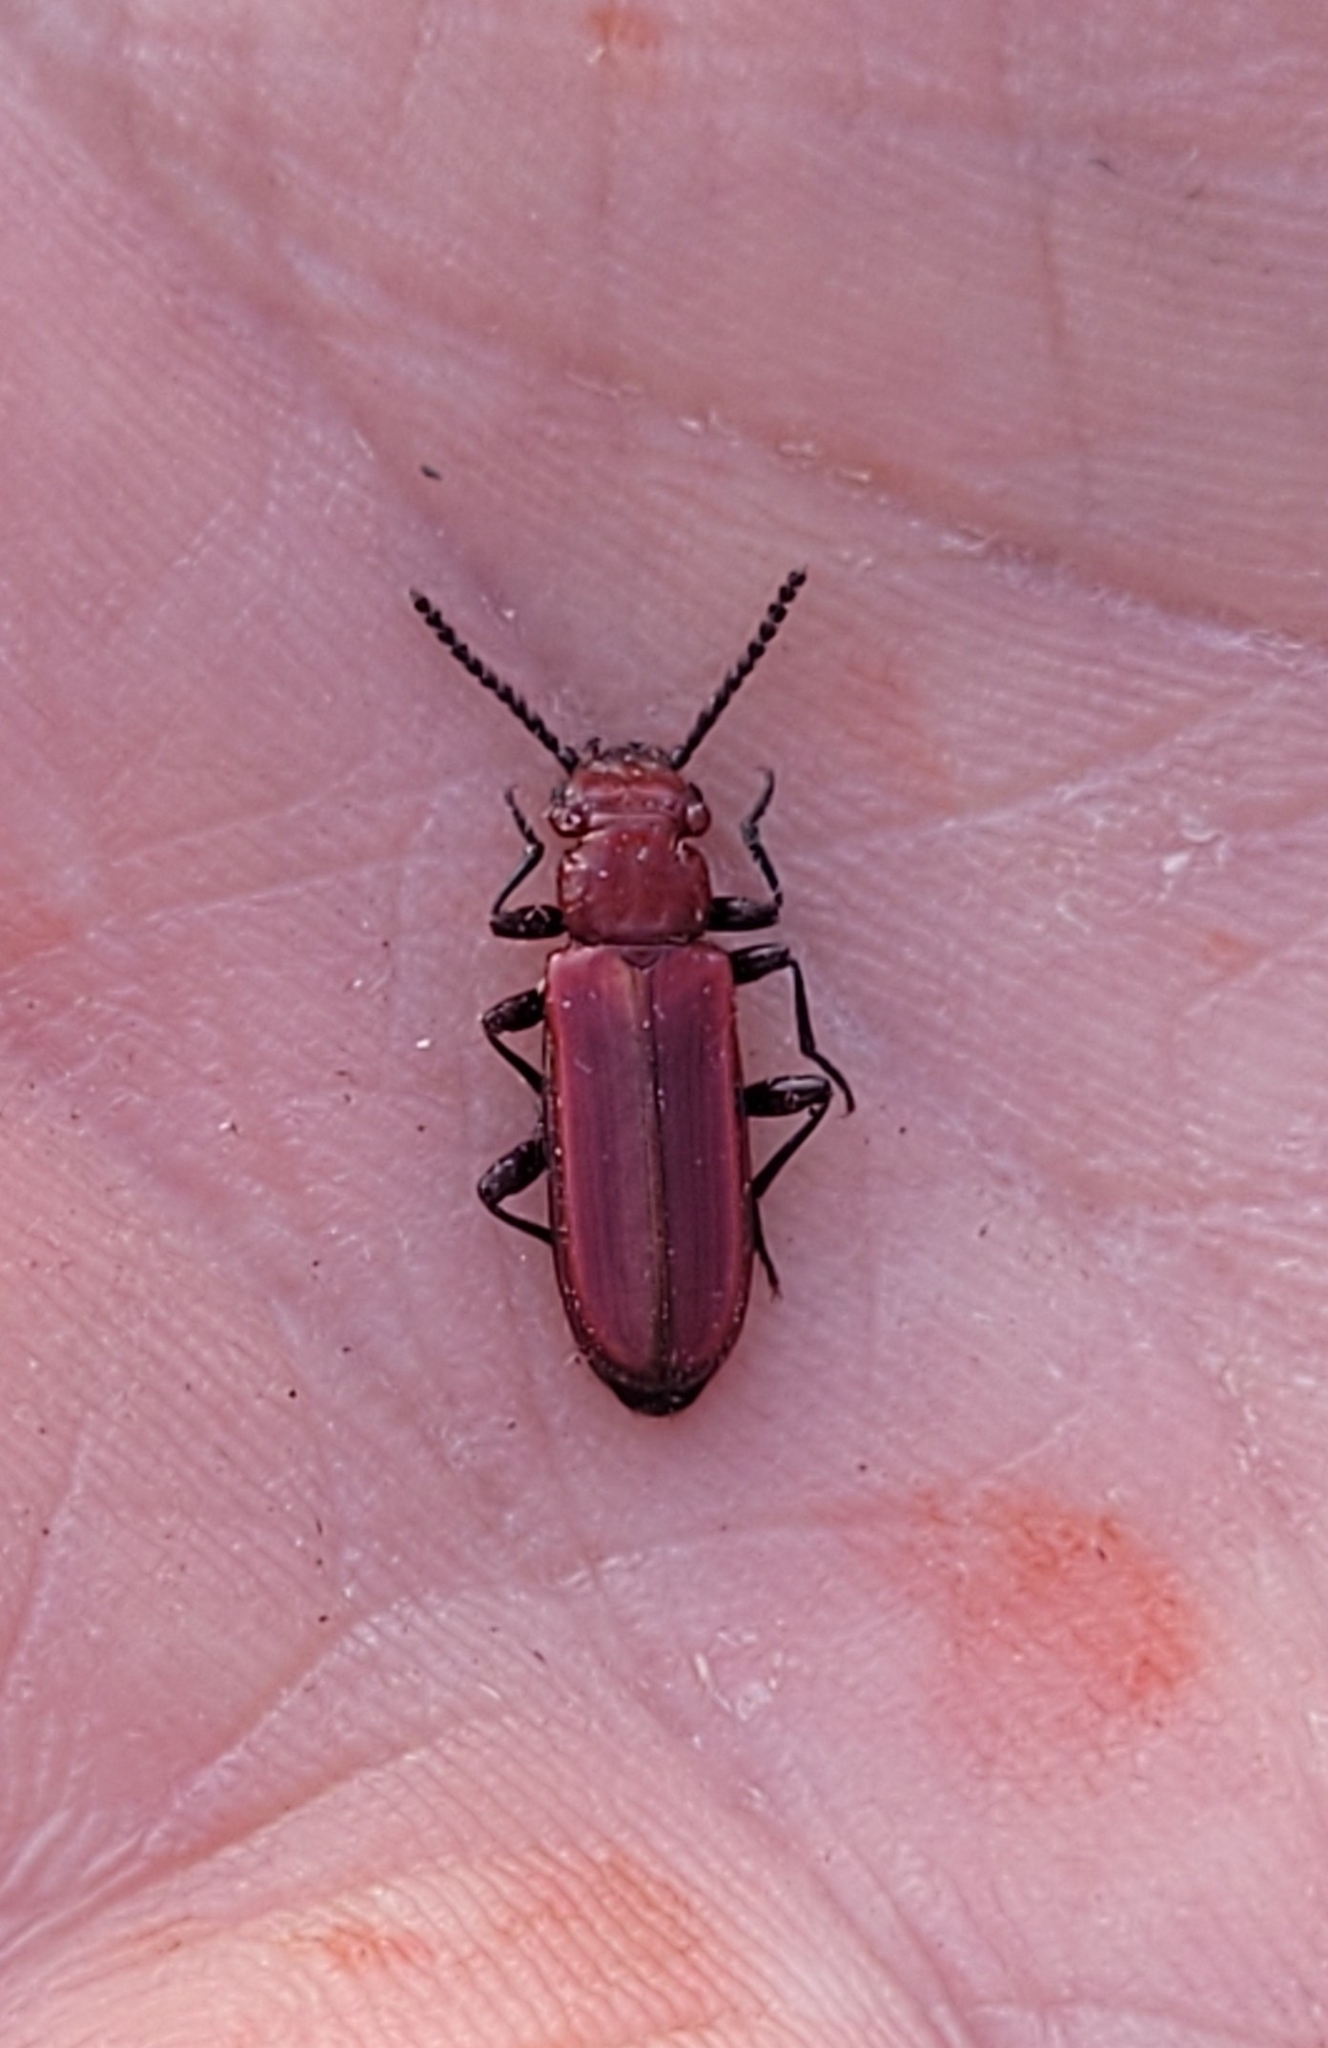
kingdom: Animalia
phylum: Arthropoda
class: Insecta
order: Coleoptera
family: Cucujidae
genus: Cucujus
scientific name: Cucujus haematodes
